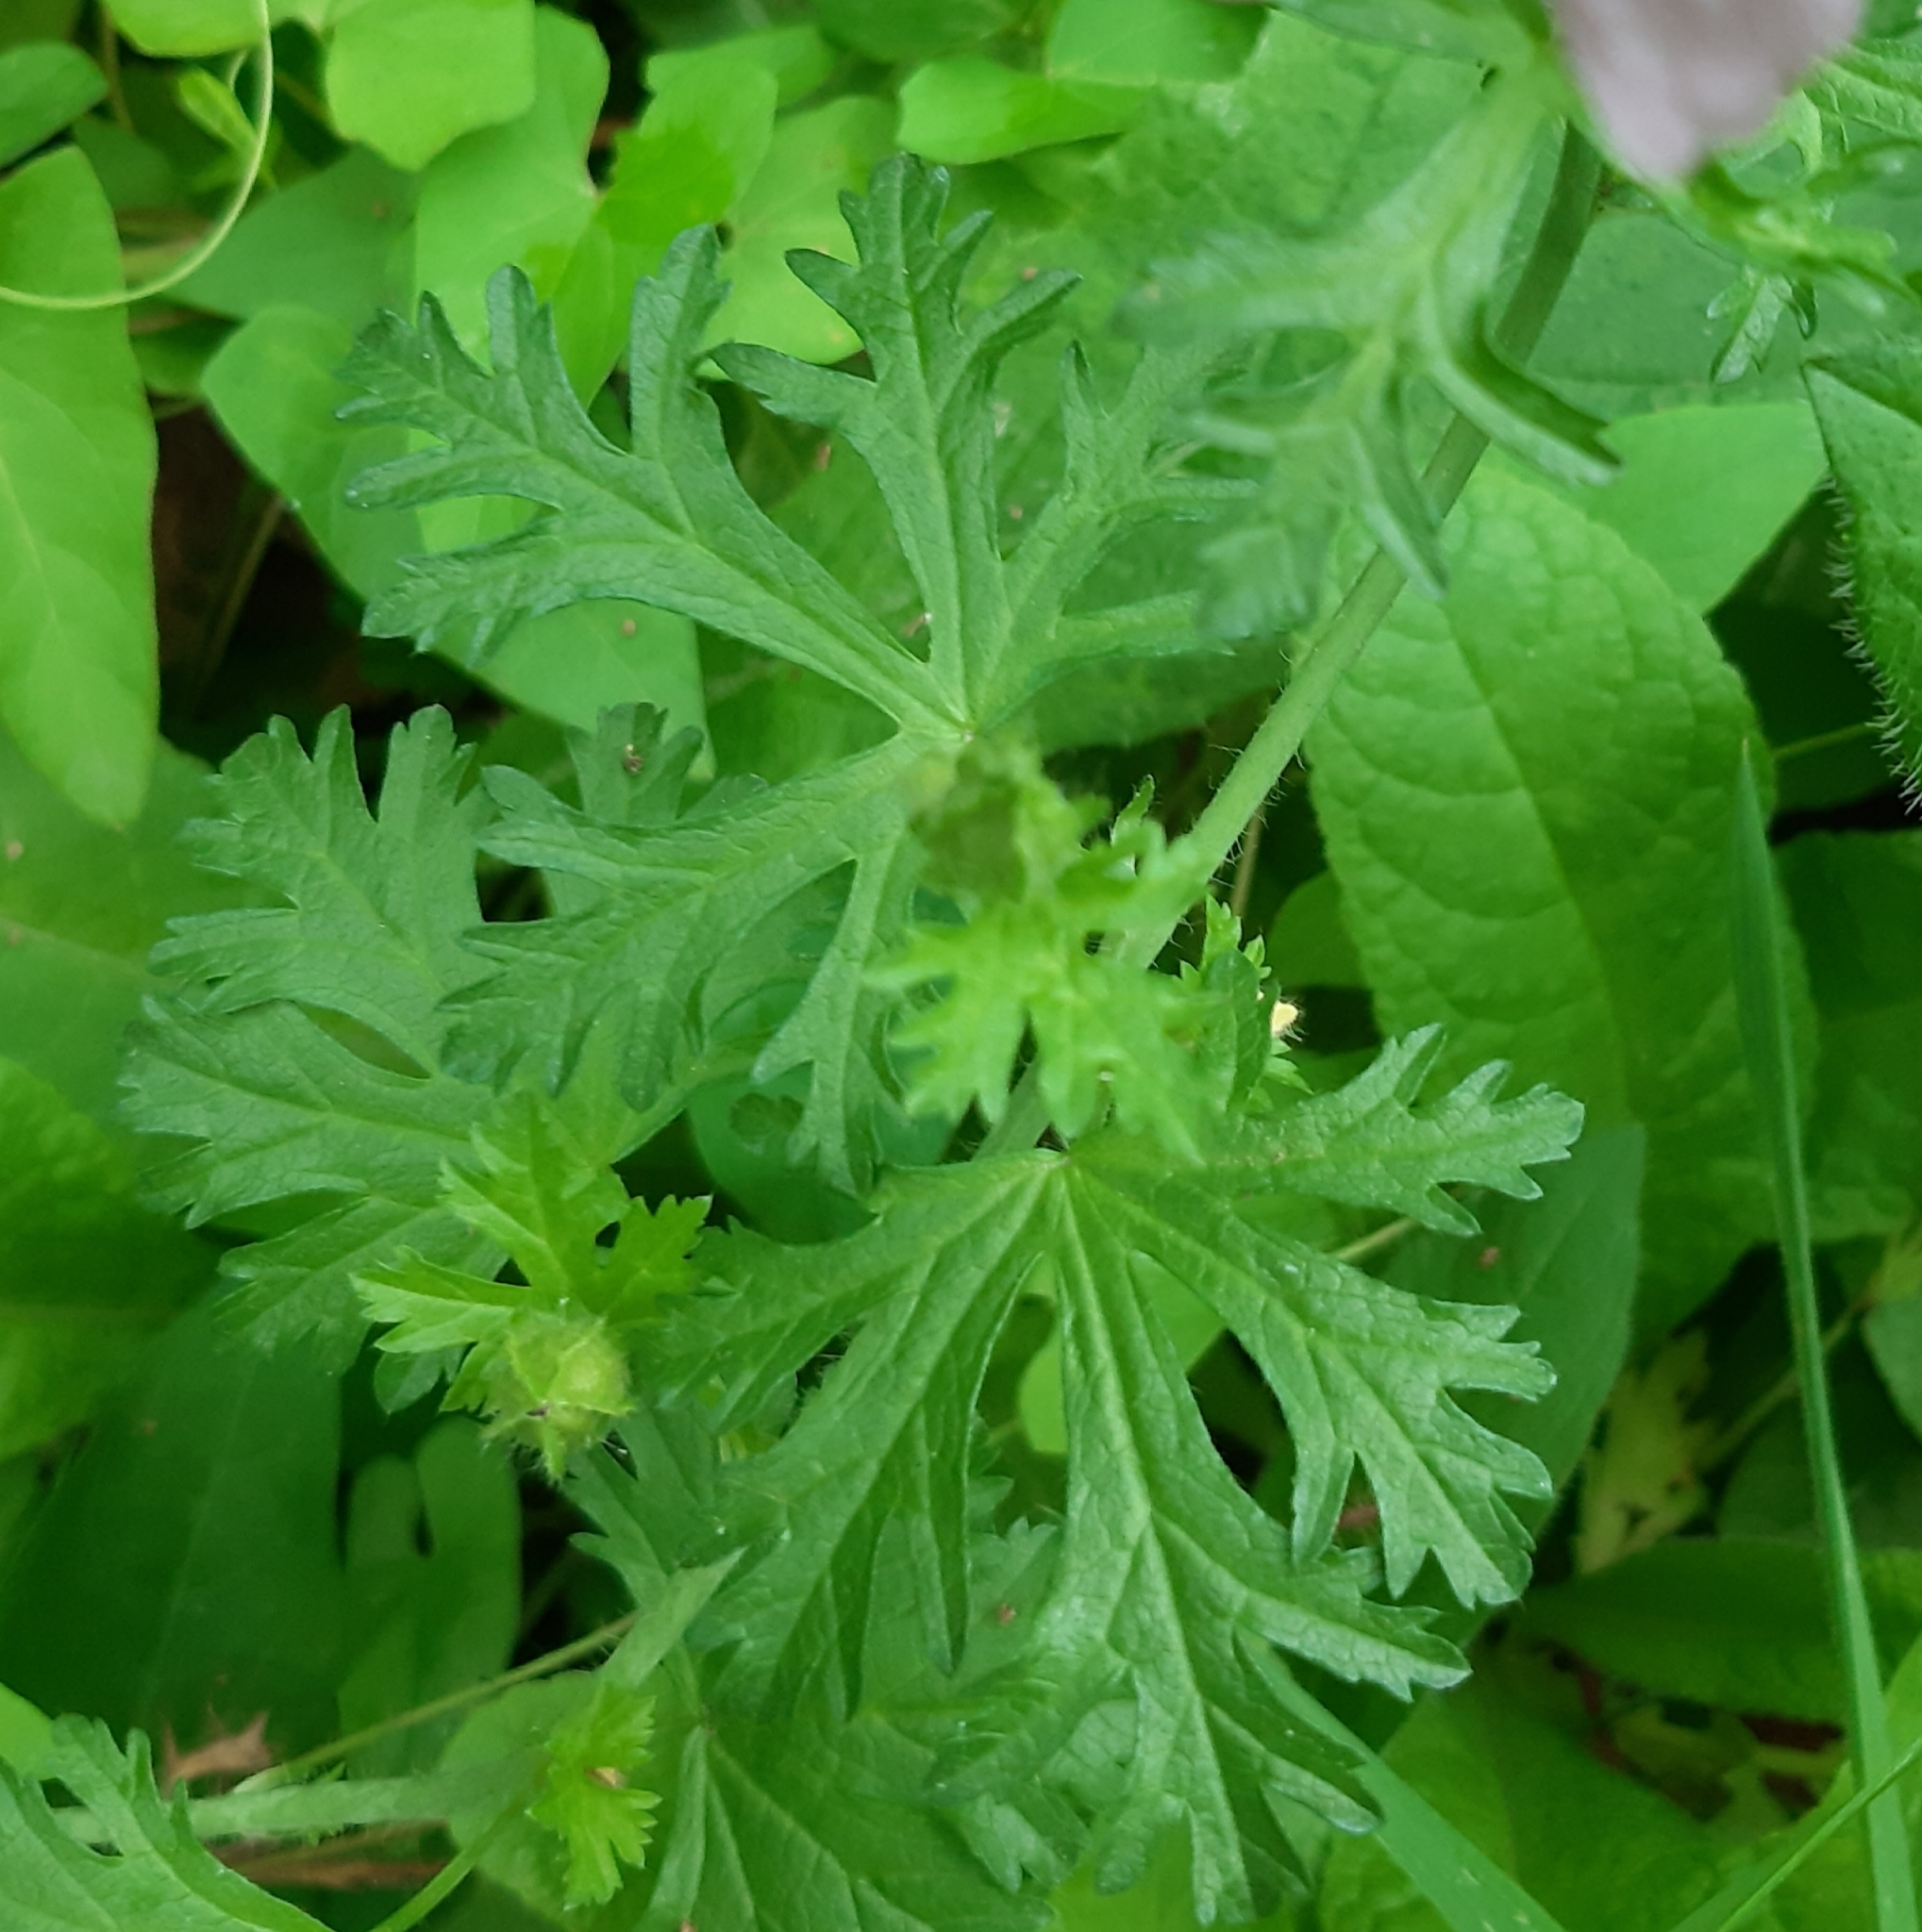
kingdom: Plantae
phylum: Tracheophyta
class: Magnoliopsida
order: Malvales
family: Malvaceae
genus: Malva
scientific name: Malva moschata
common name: Musk mallow
